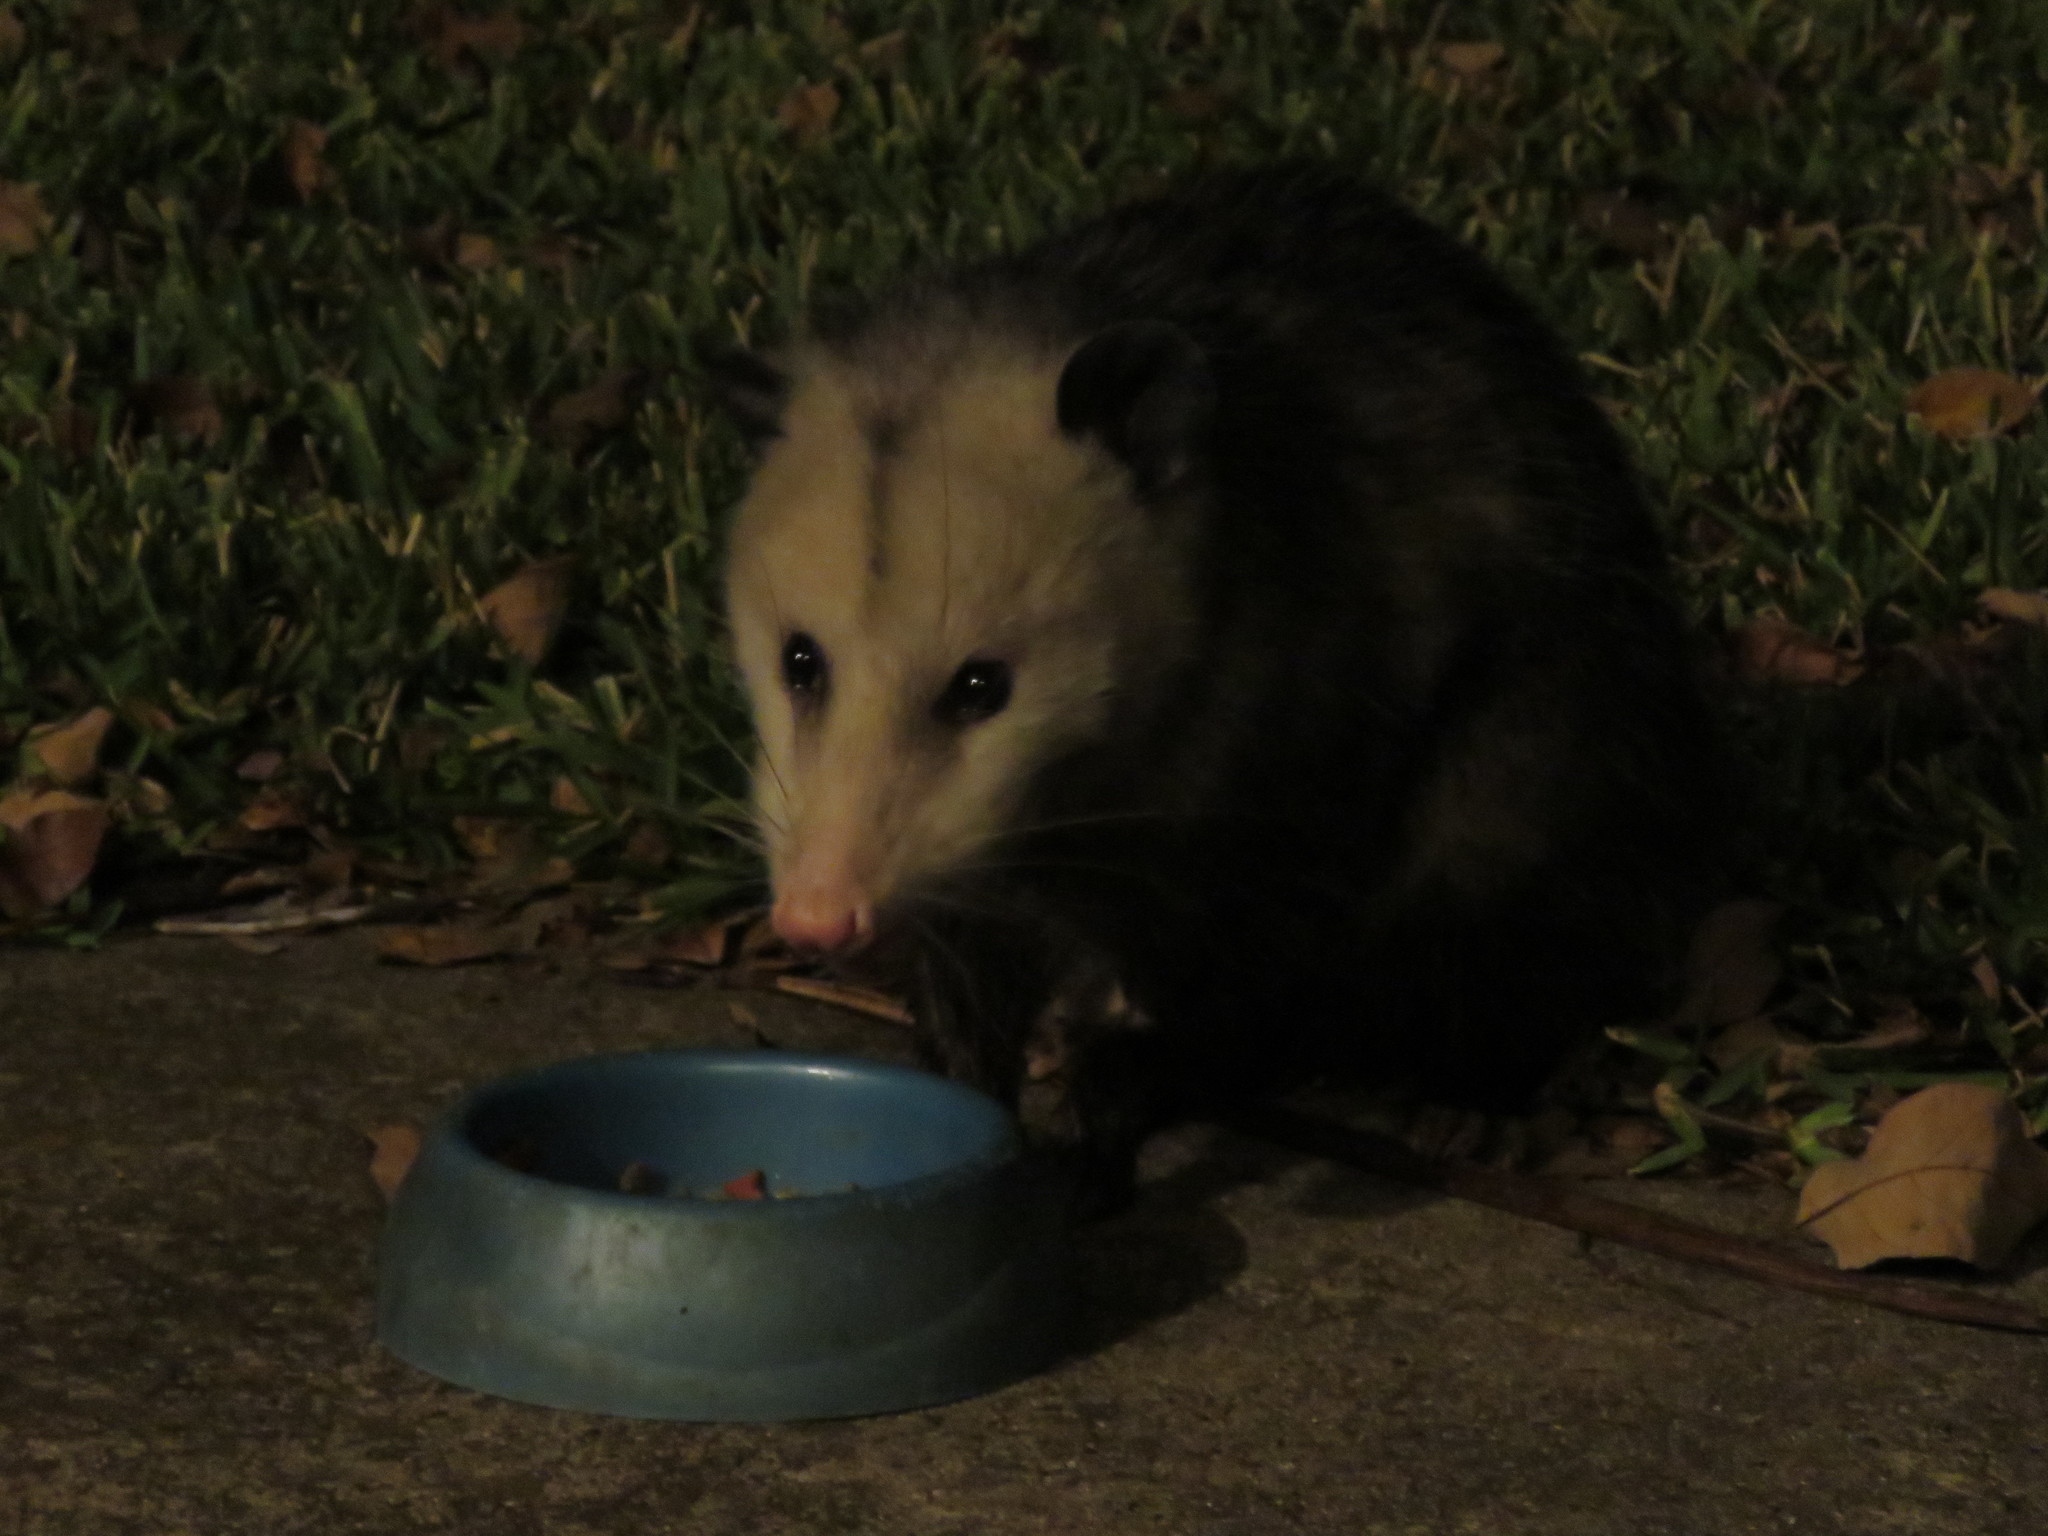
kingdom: Animalia
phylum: Chordata
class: Mammalia
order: Didelphimorphia
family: Didelphidae
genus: Didelphis
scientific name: Didelphis virginiana
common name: Virginia opossum
